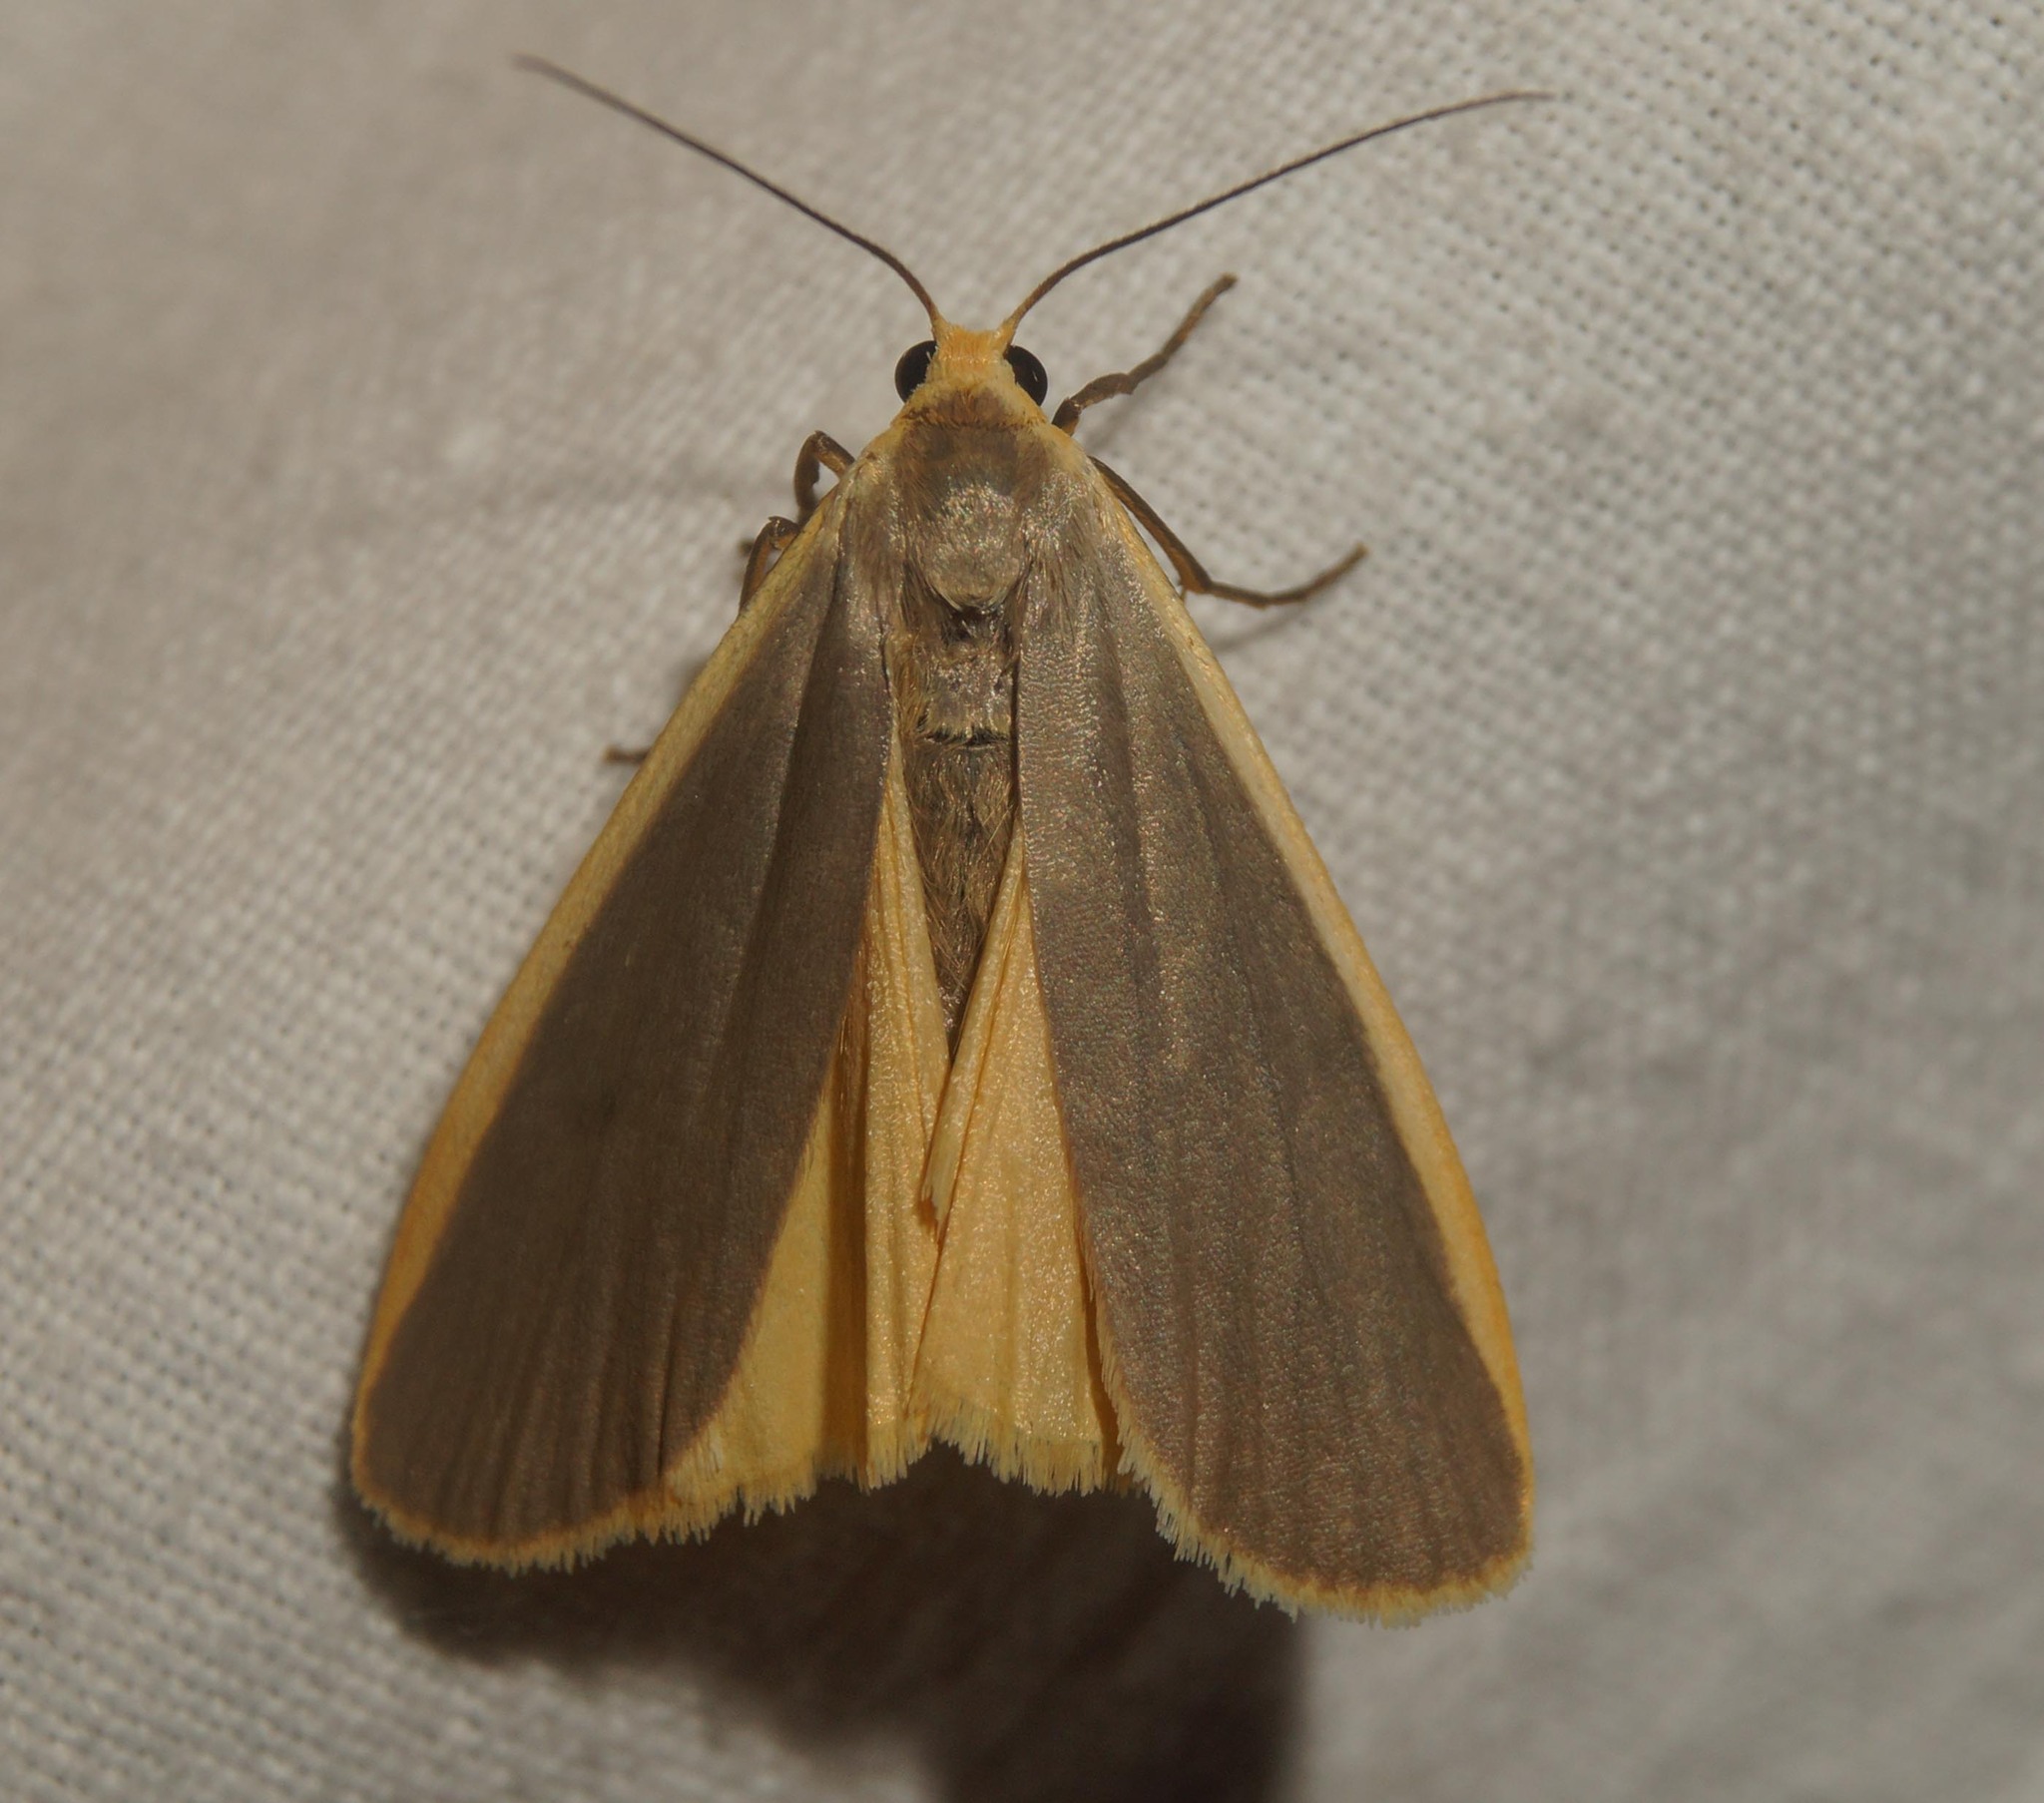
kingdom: Animalia
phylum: Arthropoda
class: Insecta
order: Lepidoptera
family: Erebidae
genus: Nyea
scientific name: Nyea lurideola
